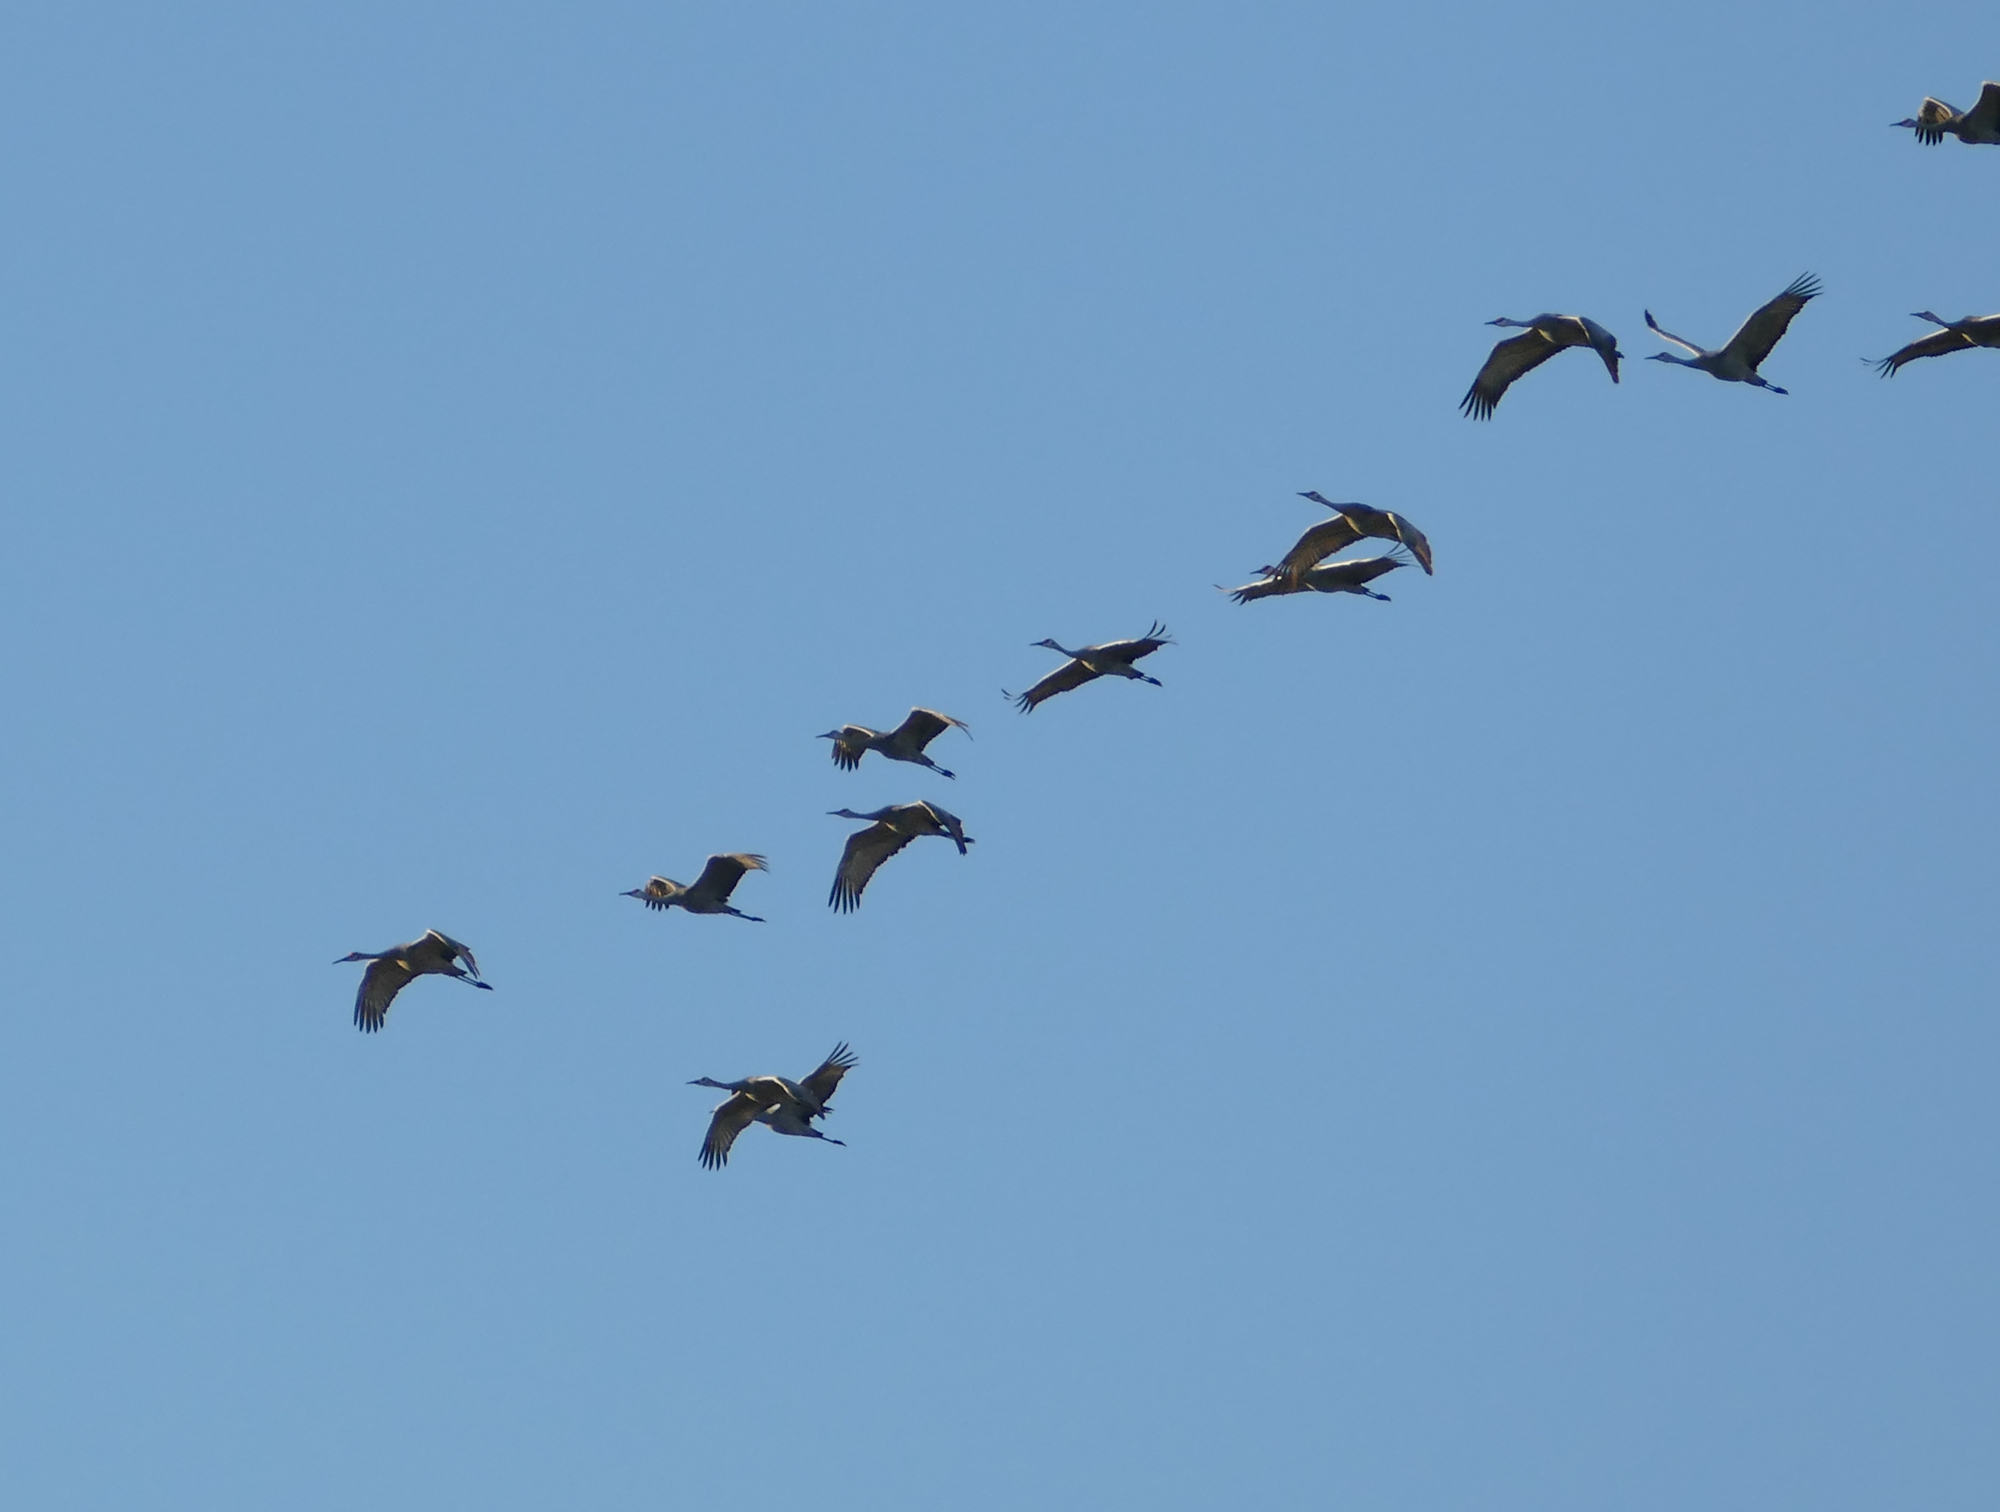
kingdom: Animalia
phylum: Chordata
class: Aves
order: Gruiformes
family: Gruidae
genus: Grus
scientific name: Grus canadensis
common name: Sandhill crane
